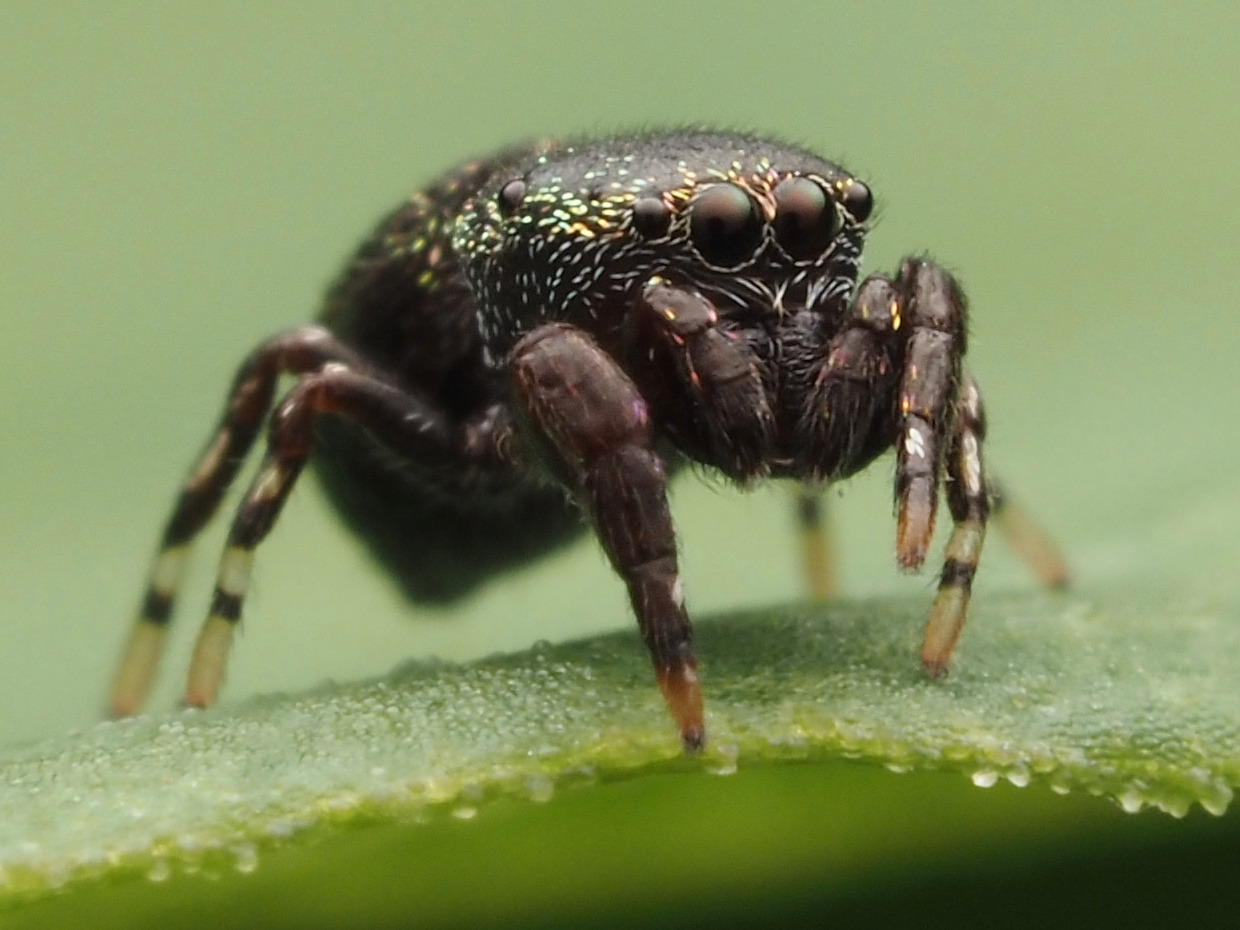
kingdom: Animalia
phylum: Arthropoda
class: Arachnida
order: Araneae
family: Salticidae
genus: Sassacus
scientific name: Sassacus cyaneus
